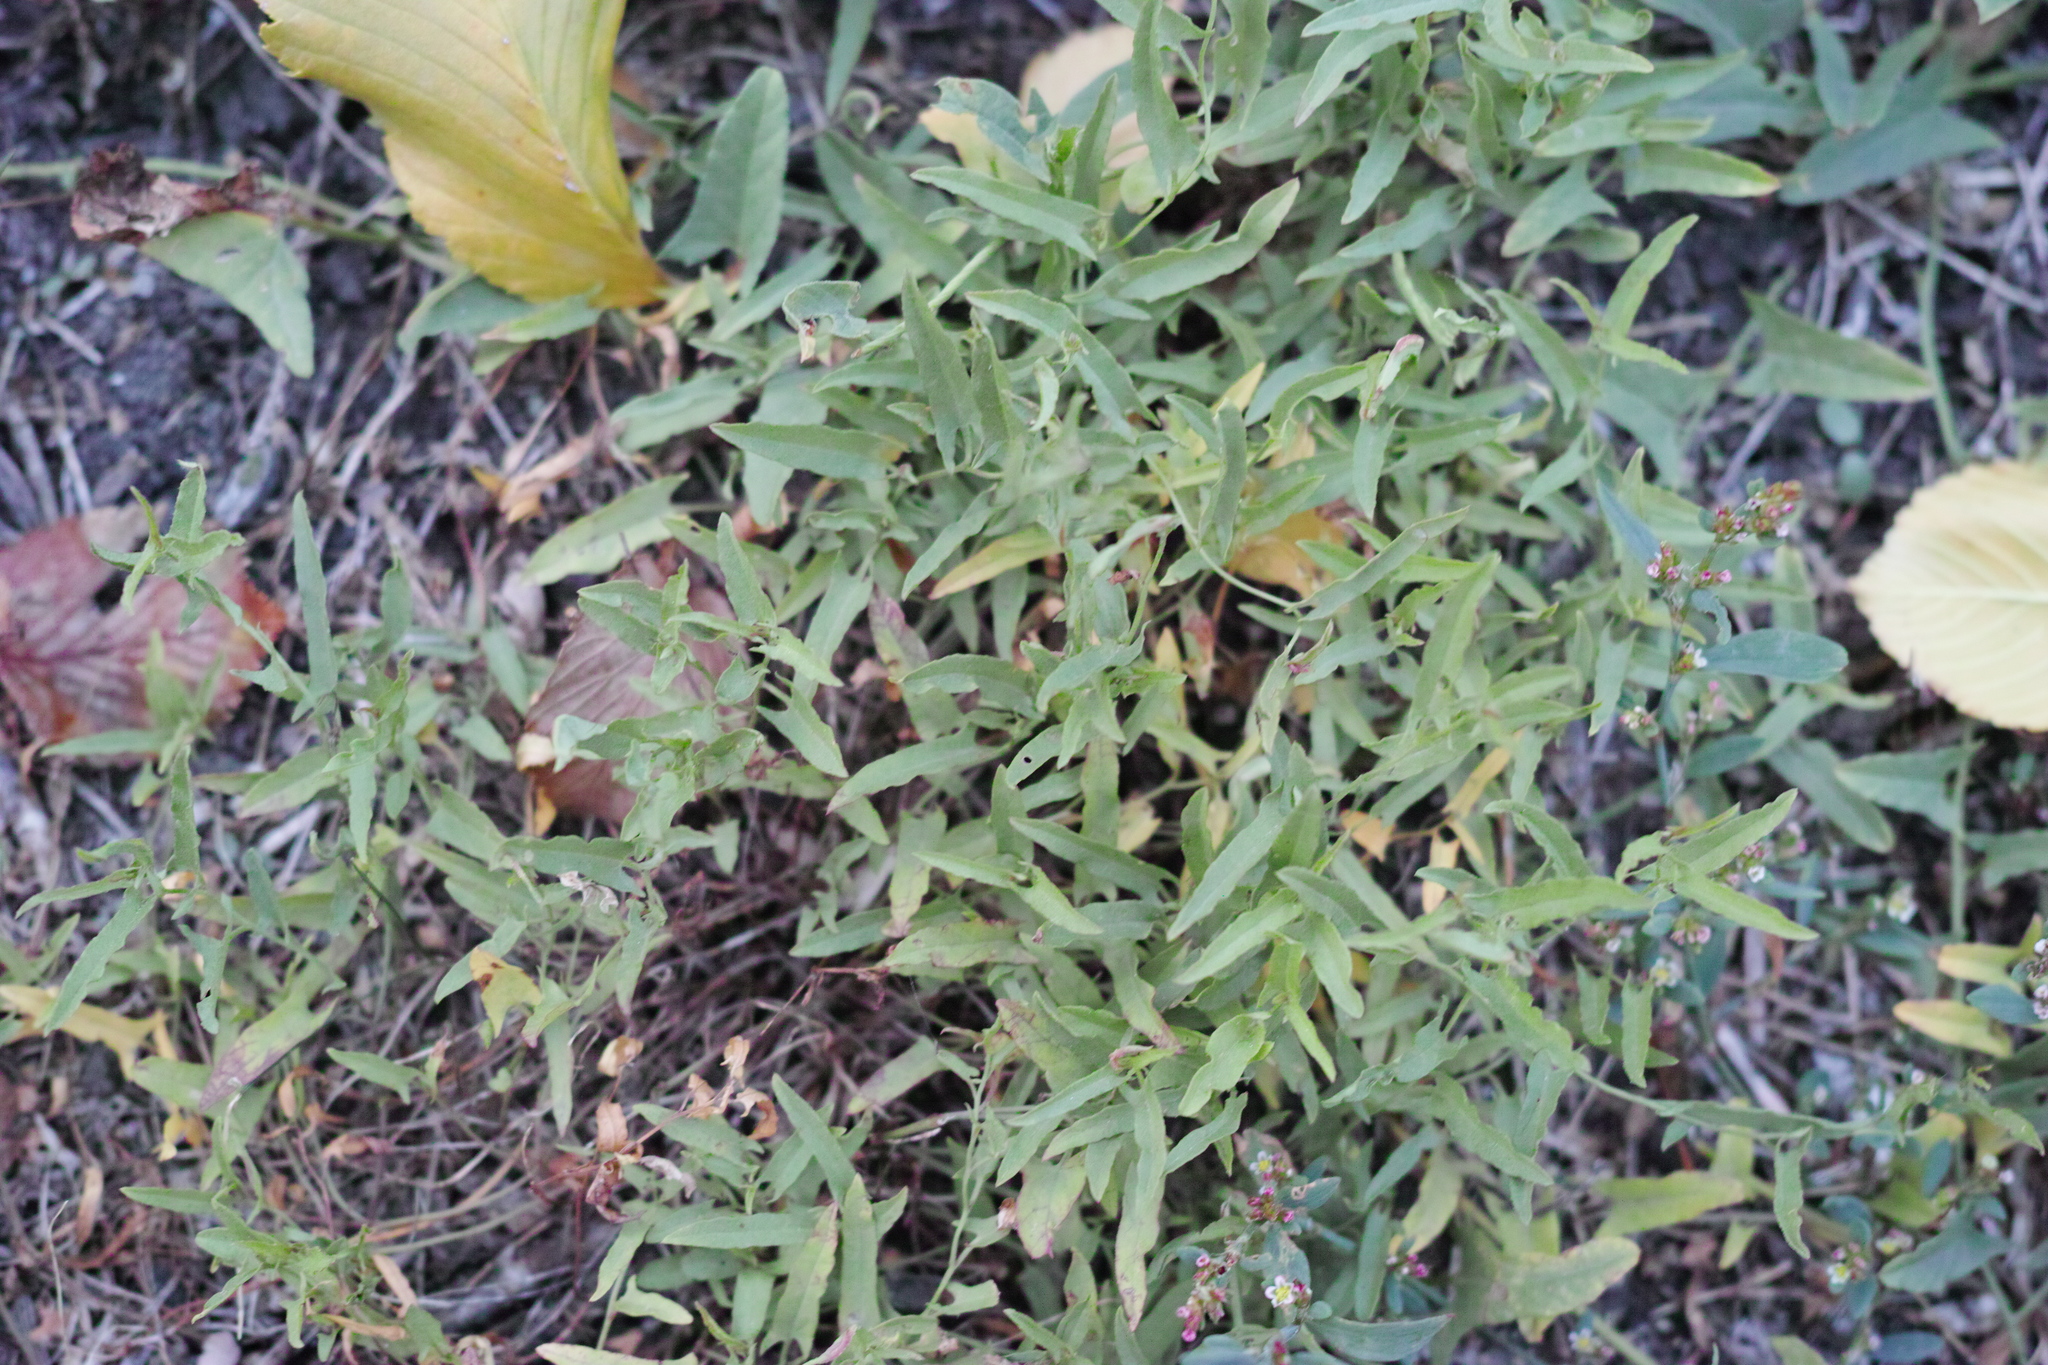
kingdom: Plantae
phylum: Tracheophyta
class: Magnoliopsida
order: Solanales
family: Convolvulaceae
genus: Convolvulus
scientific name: Convolvulus arvensis
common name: Field bindweed
